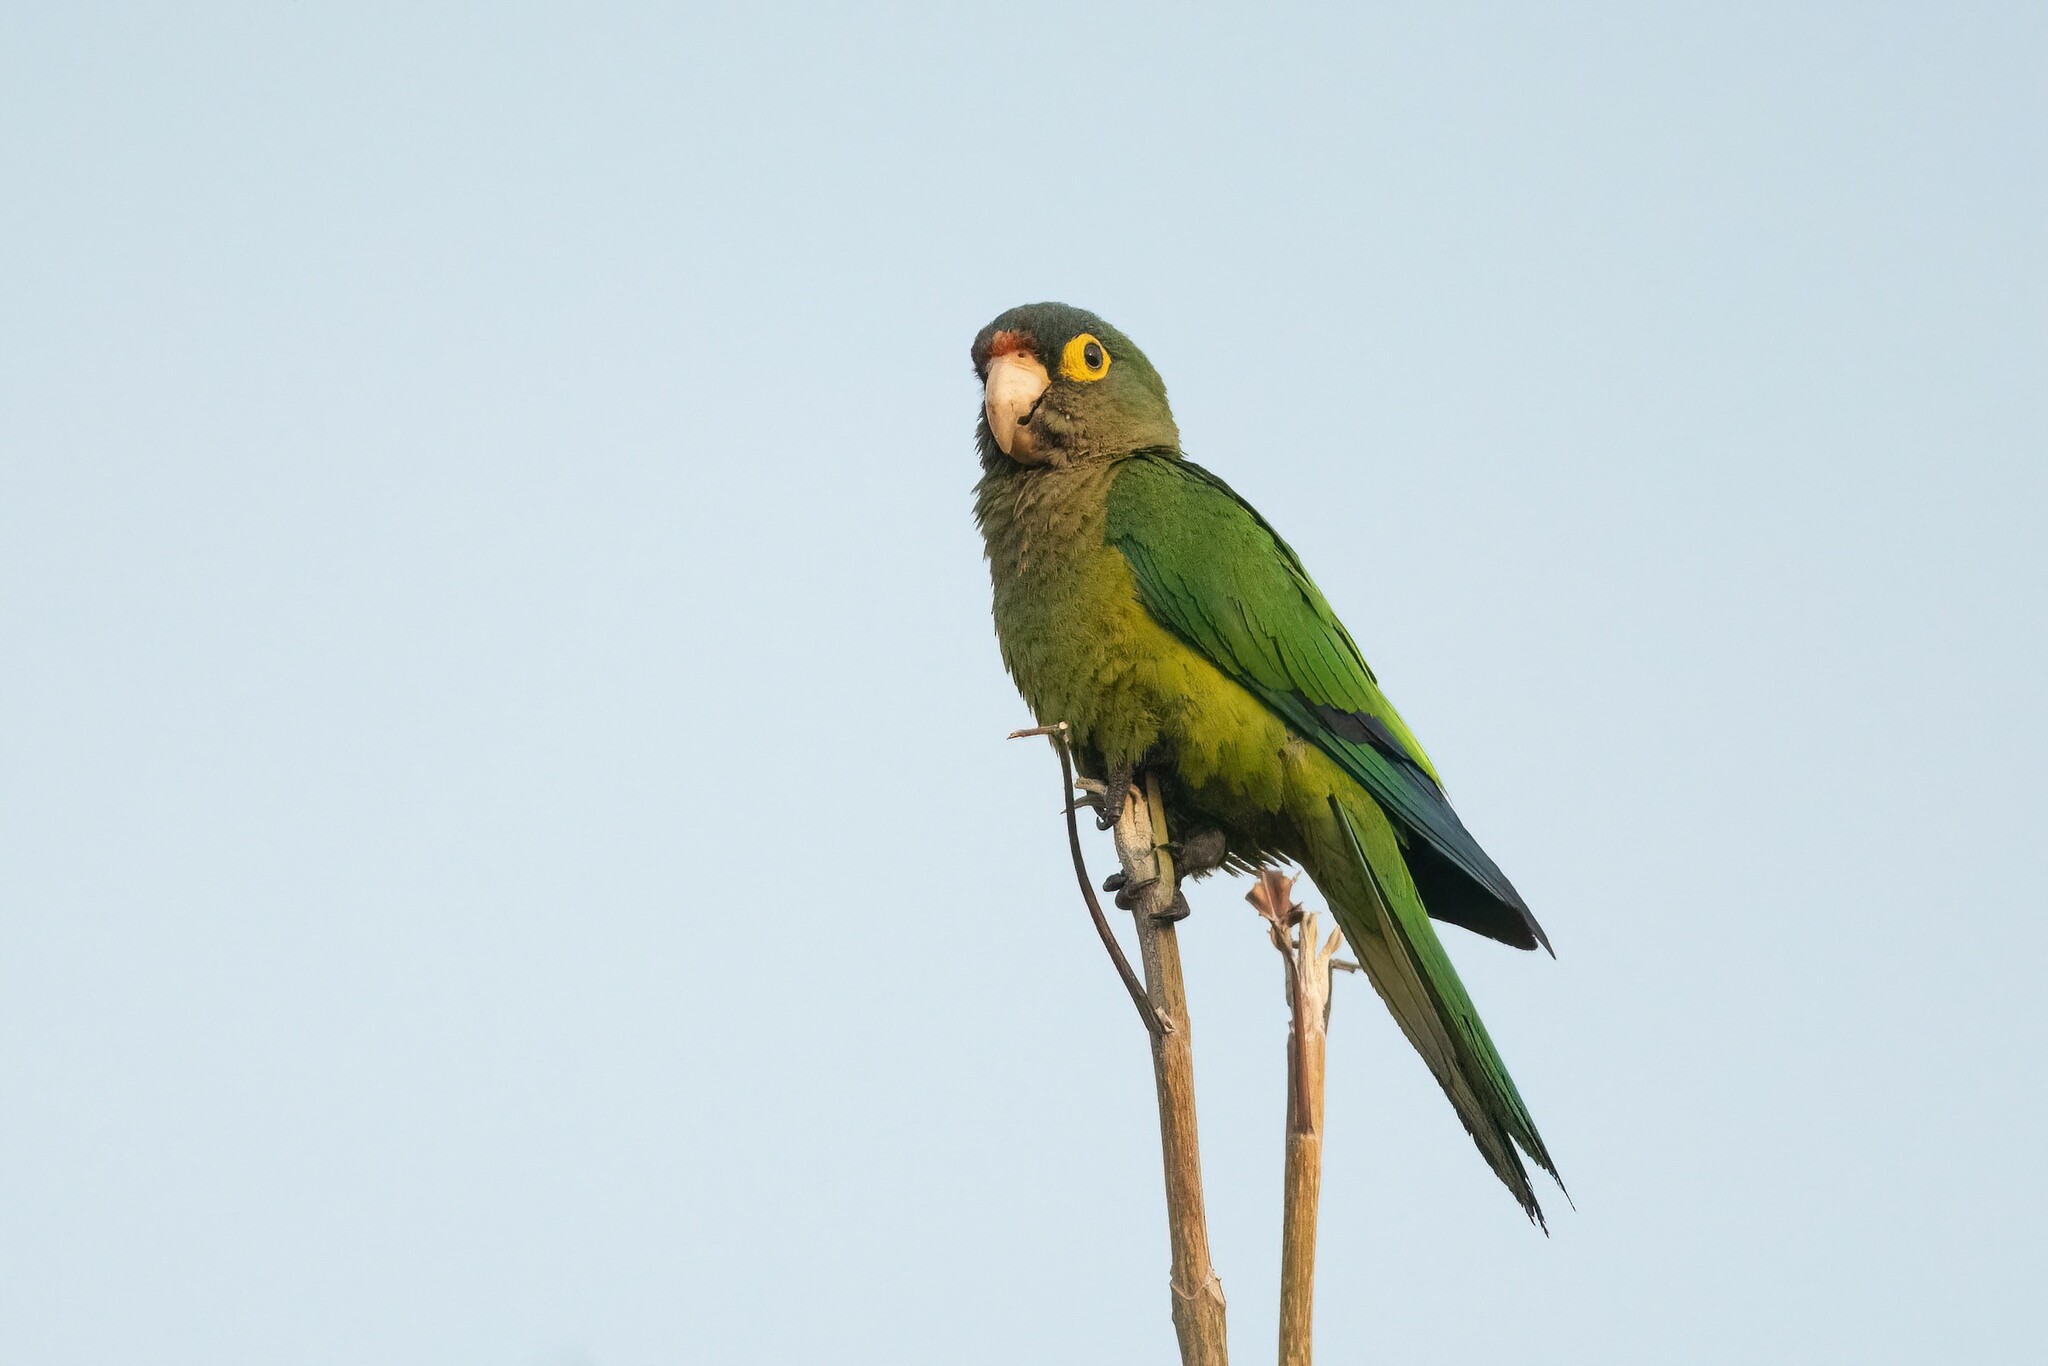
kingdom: Animalia
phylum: Chordata
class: Aves
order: Psittaciformes
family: Psittacidae
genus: Aratinga
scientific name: Aratinga canicularis
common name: Orange-fronted parakeet
